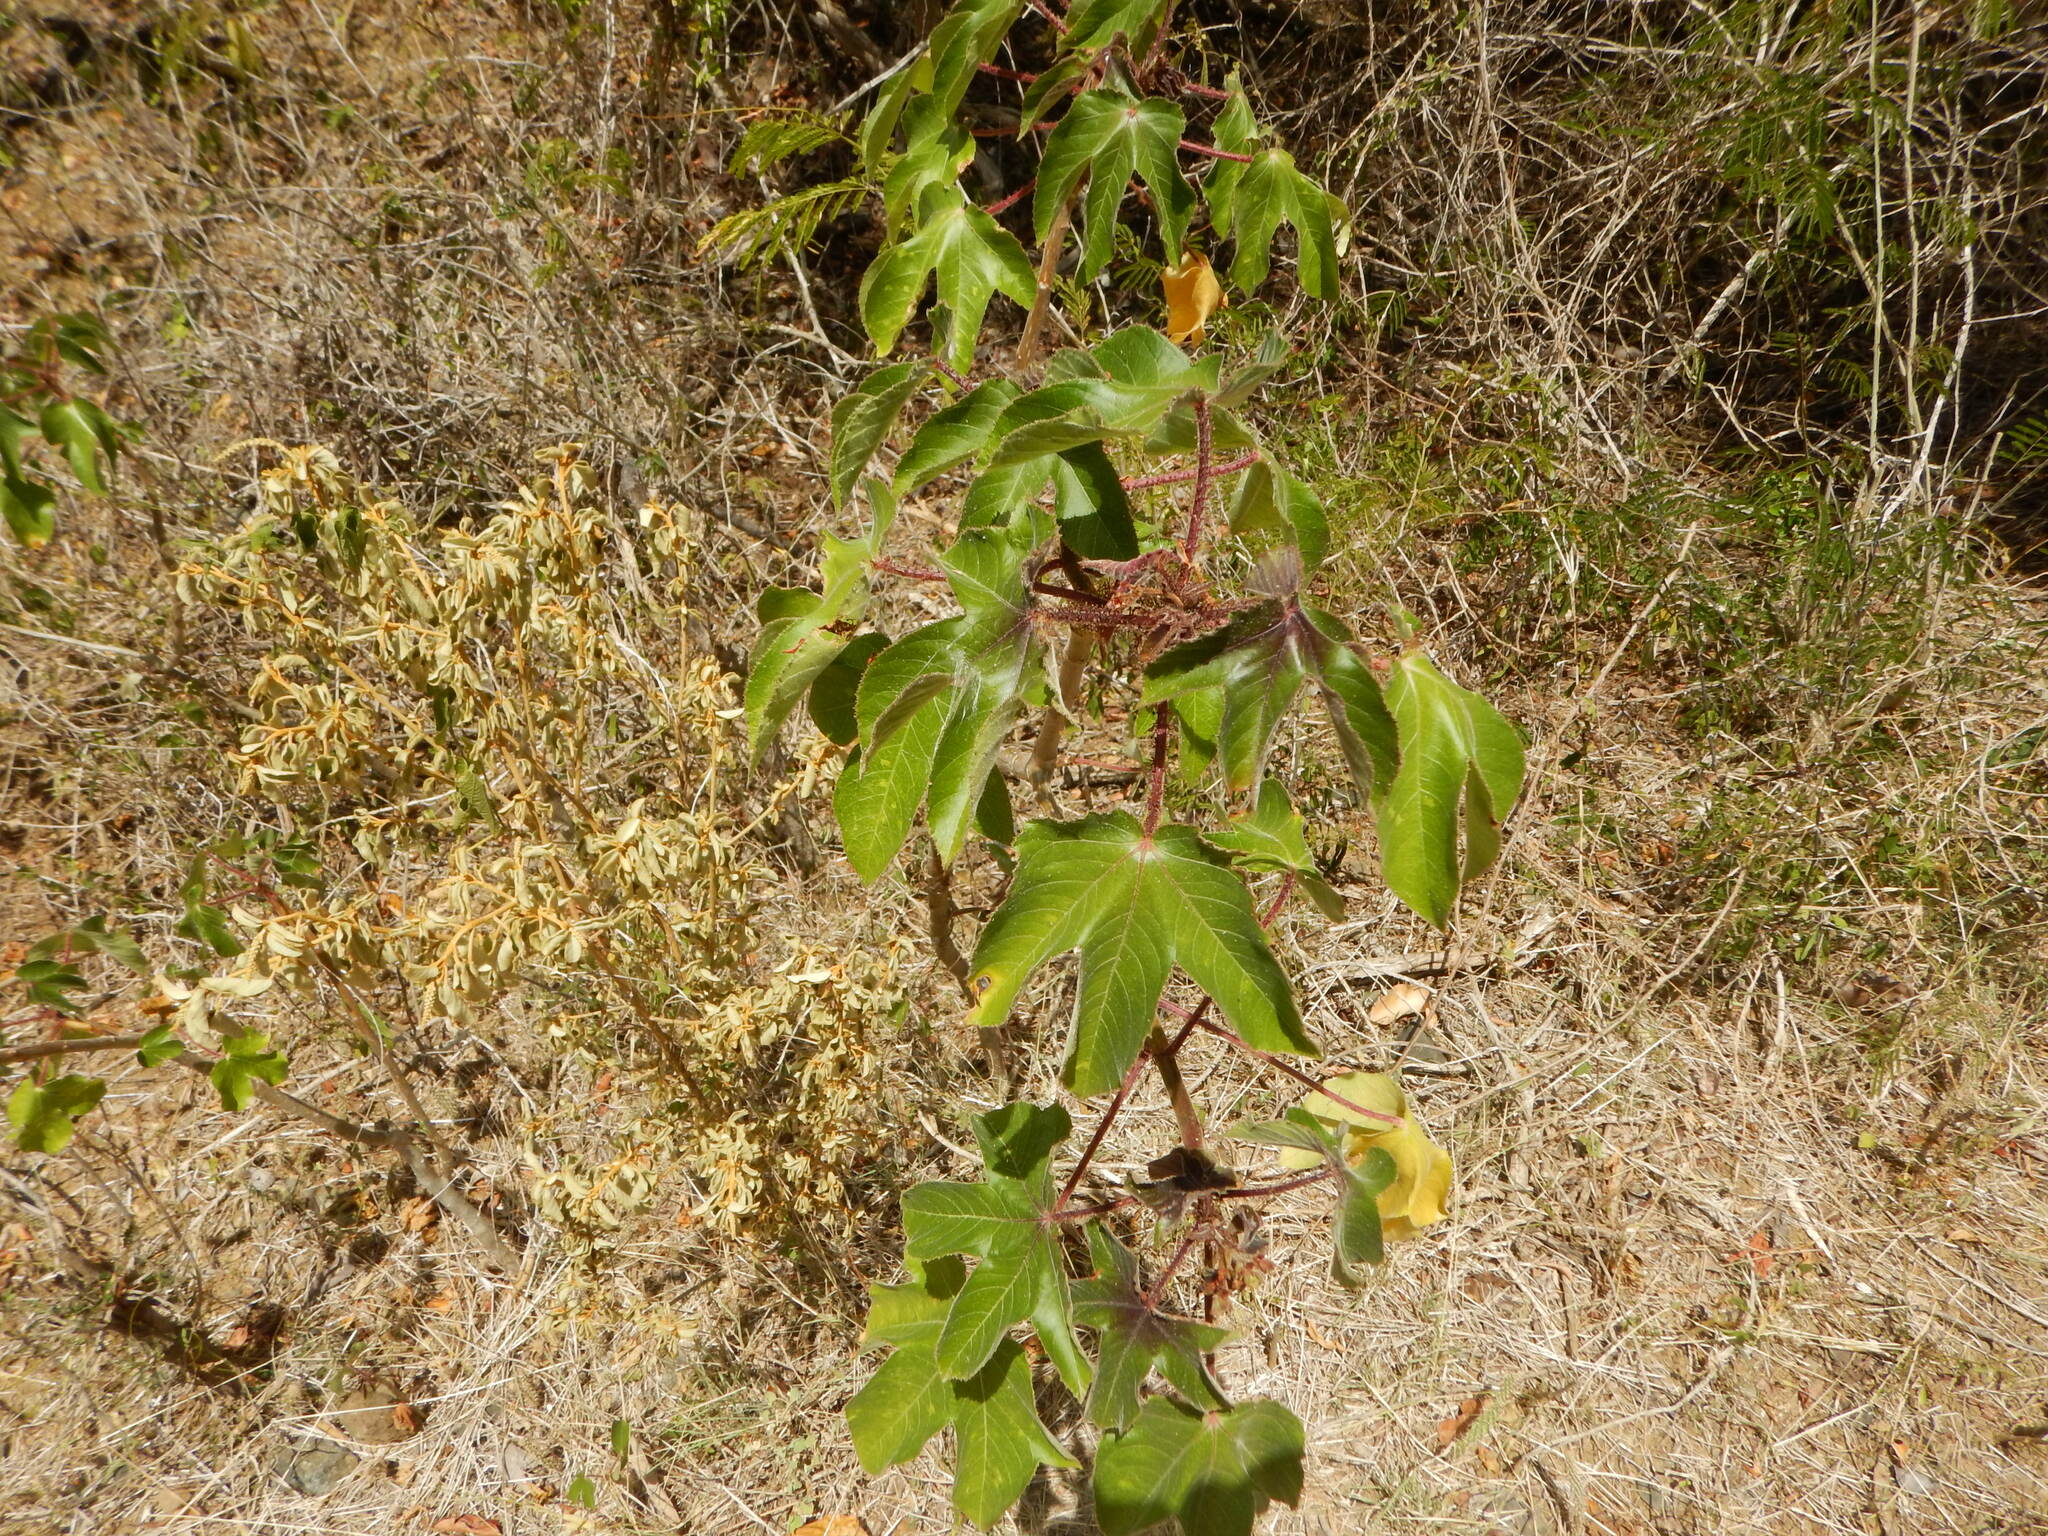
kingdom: Plantae
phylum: Tracheophyta
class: Magnoliopsida
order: Malpighiales
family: Euphorbiaceae
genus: Jatropha
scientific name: Jatropha gossypiifolia
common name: Bellyache bush
